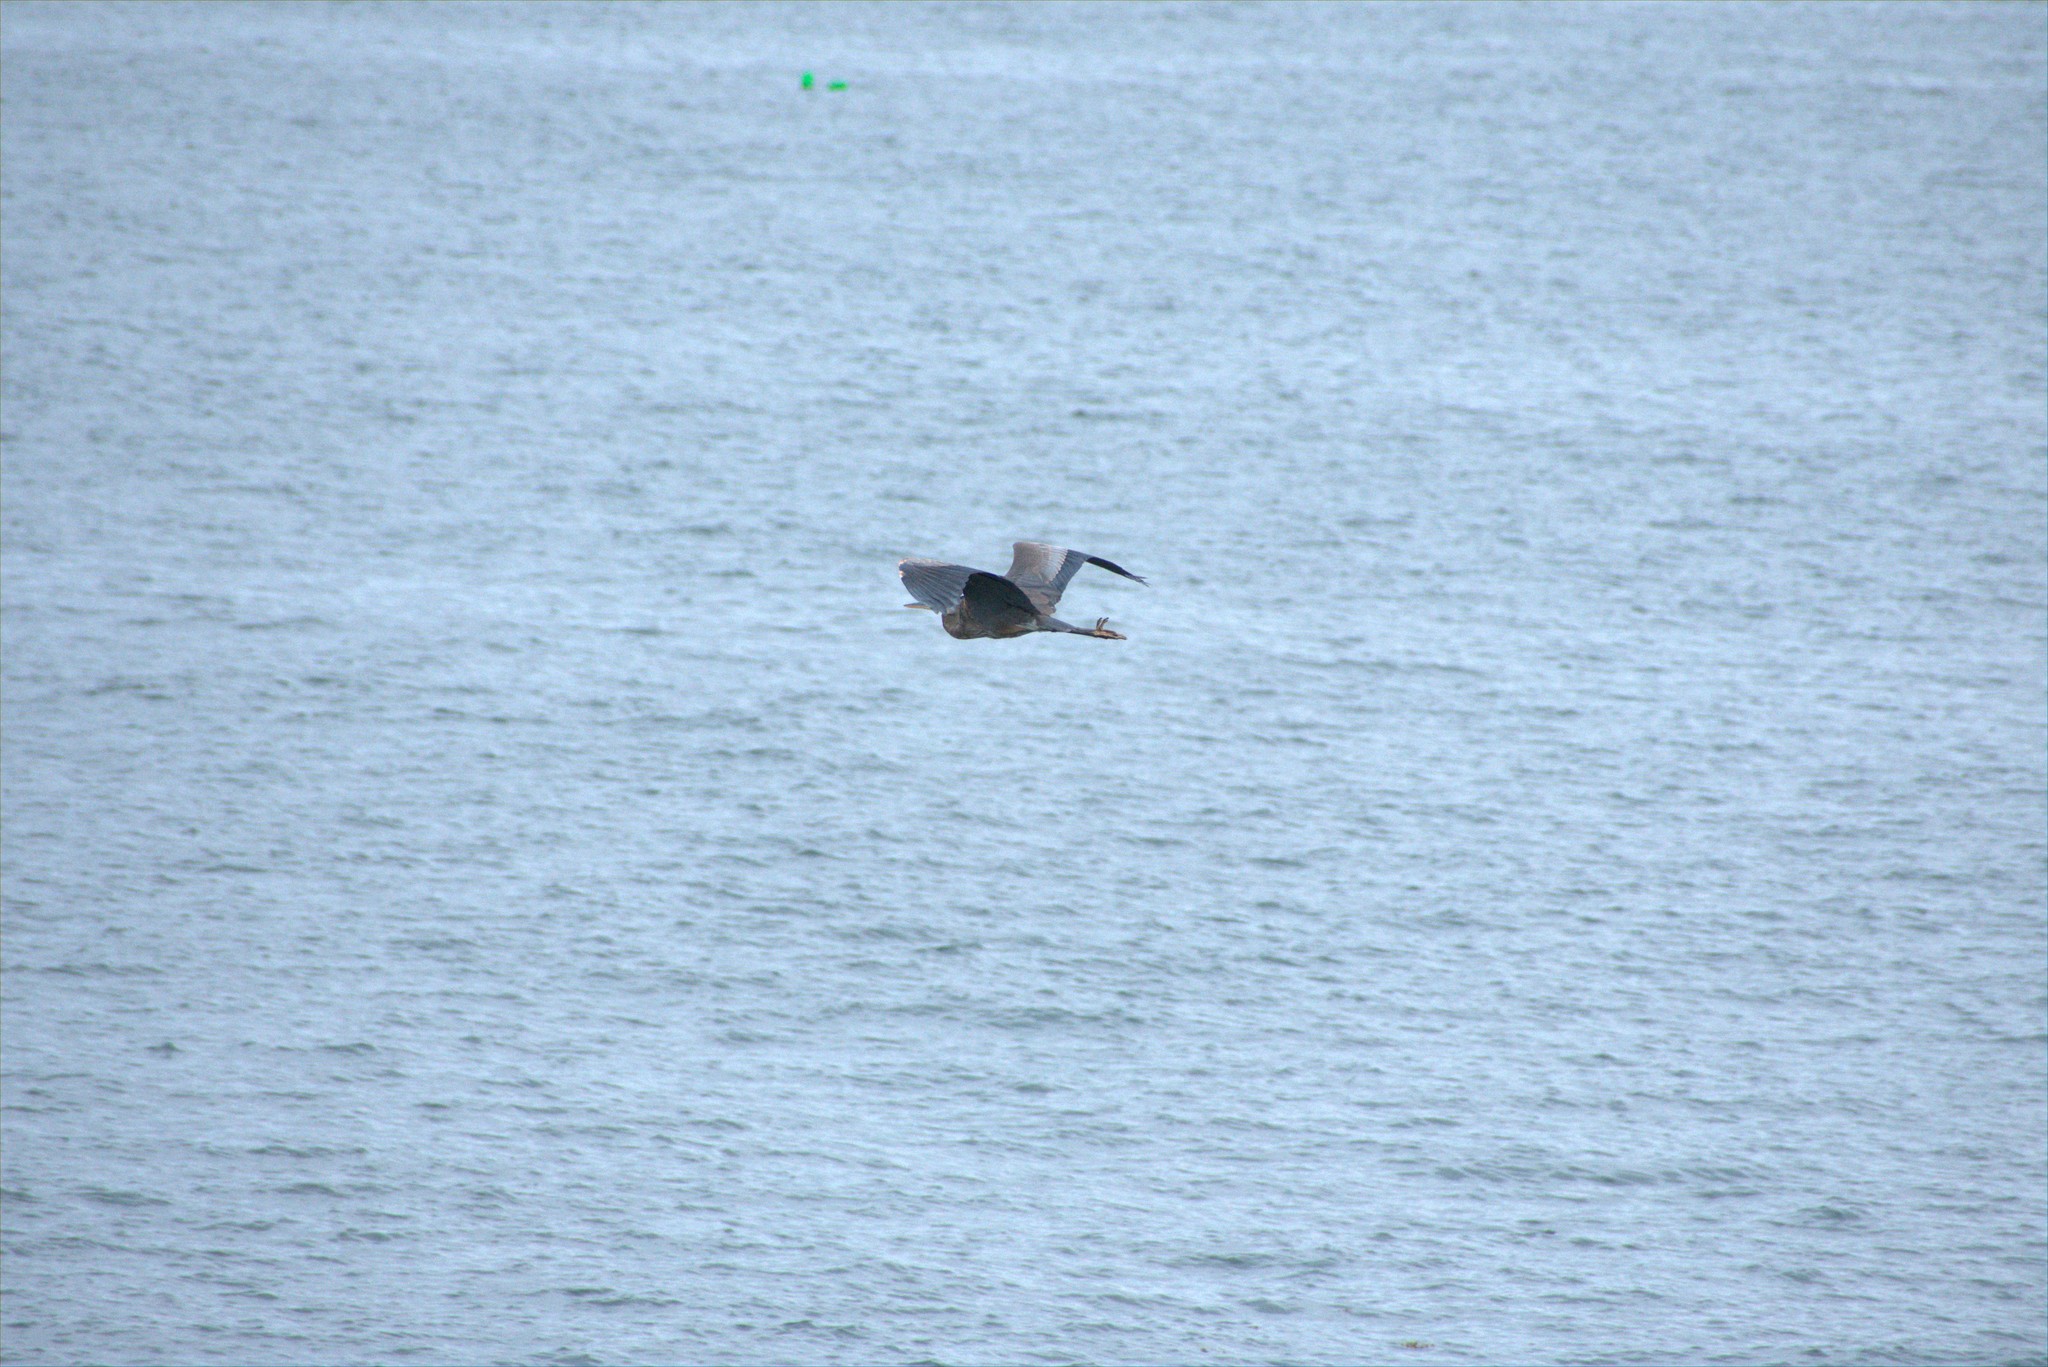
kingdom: Animalia
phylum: Chordata
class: Aves
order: Pelecaniformes
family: Ardeidae
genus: Ardea
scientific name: Ardea herodias
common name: Great blue heron
